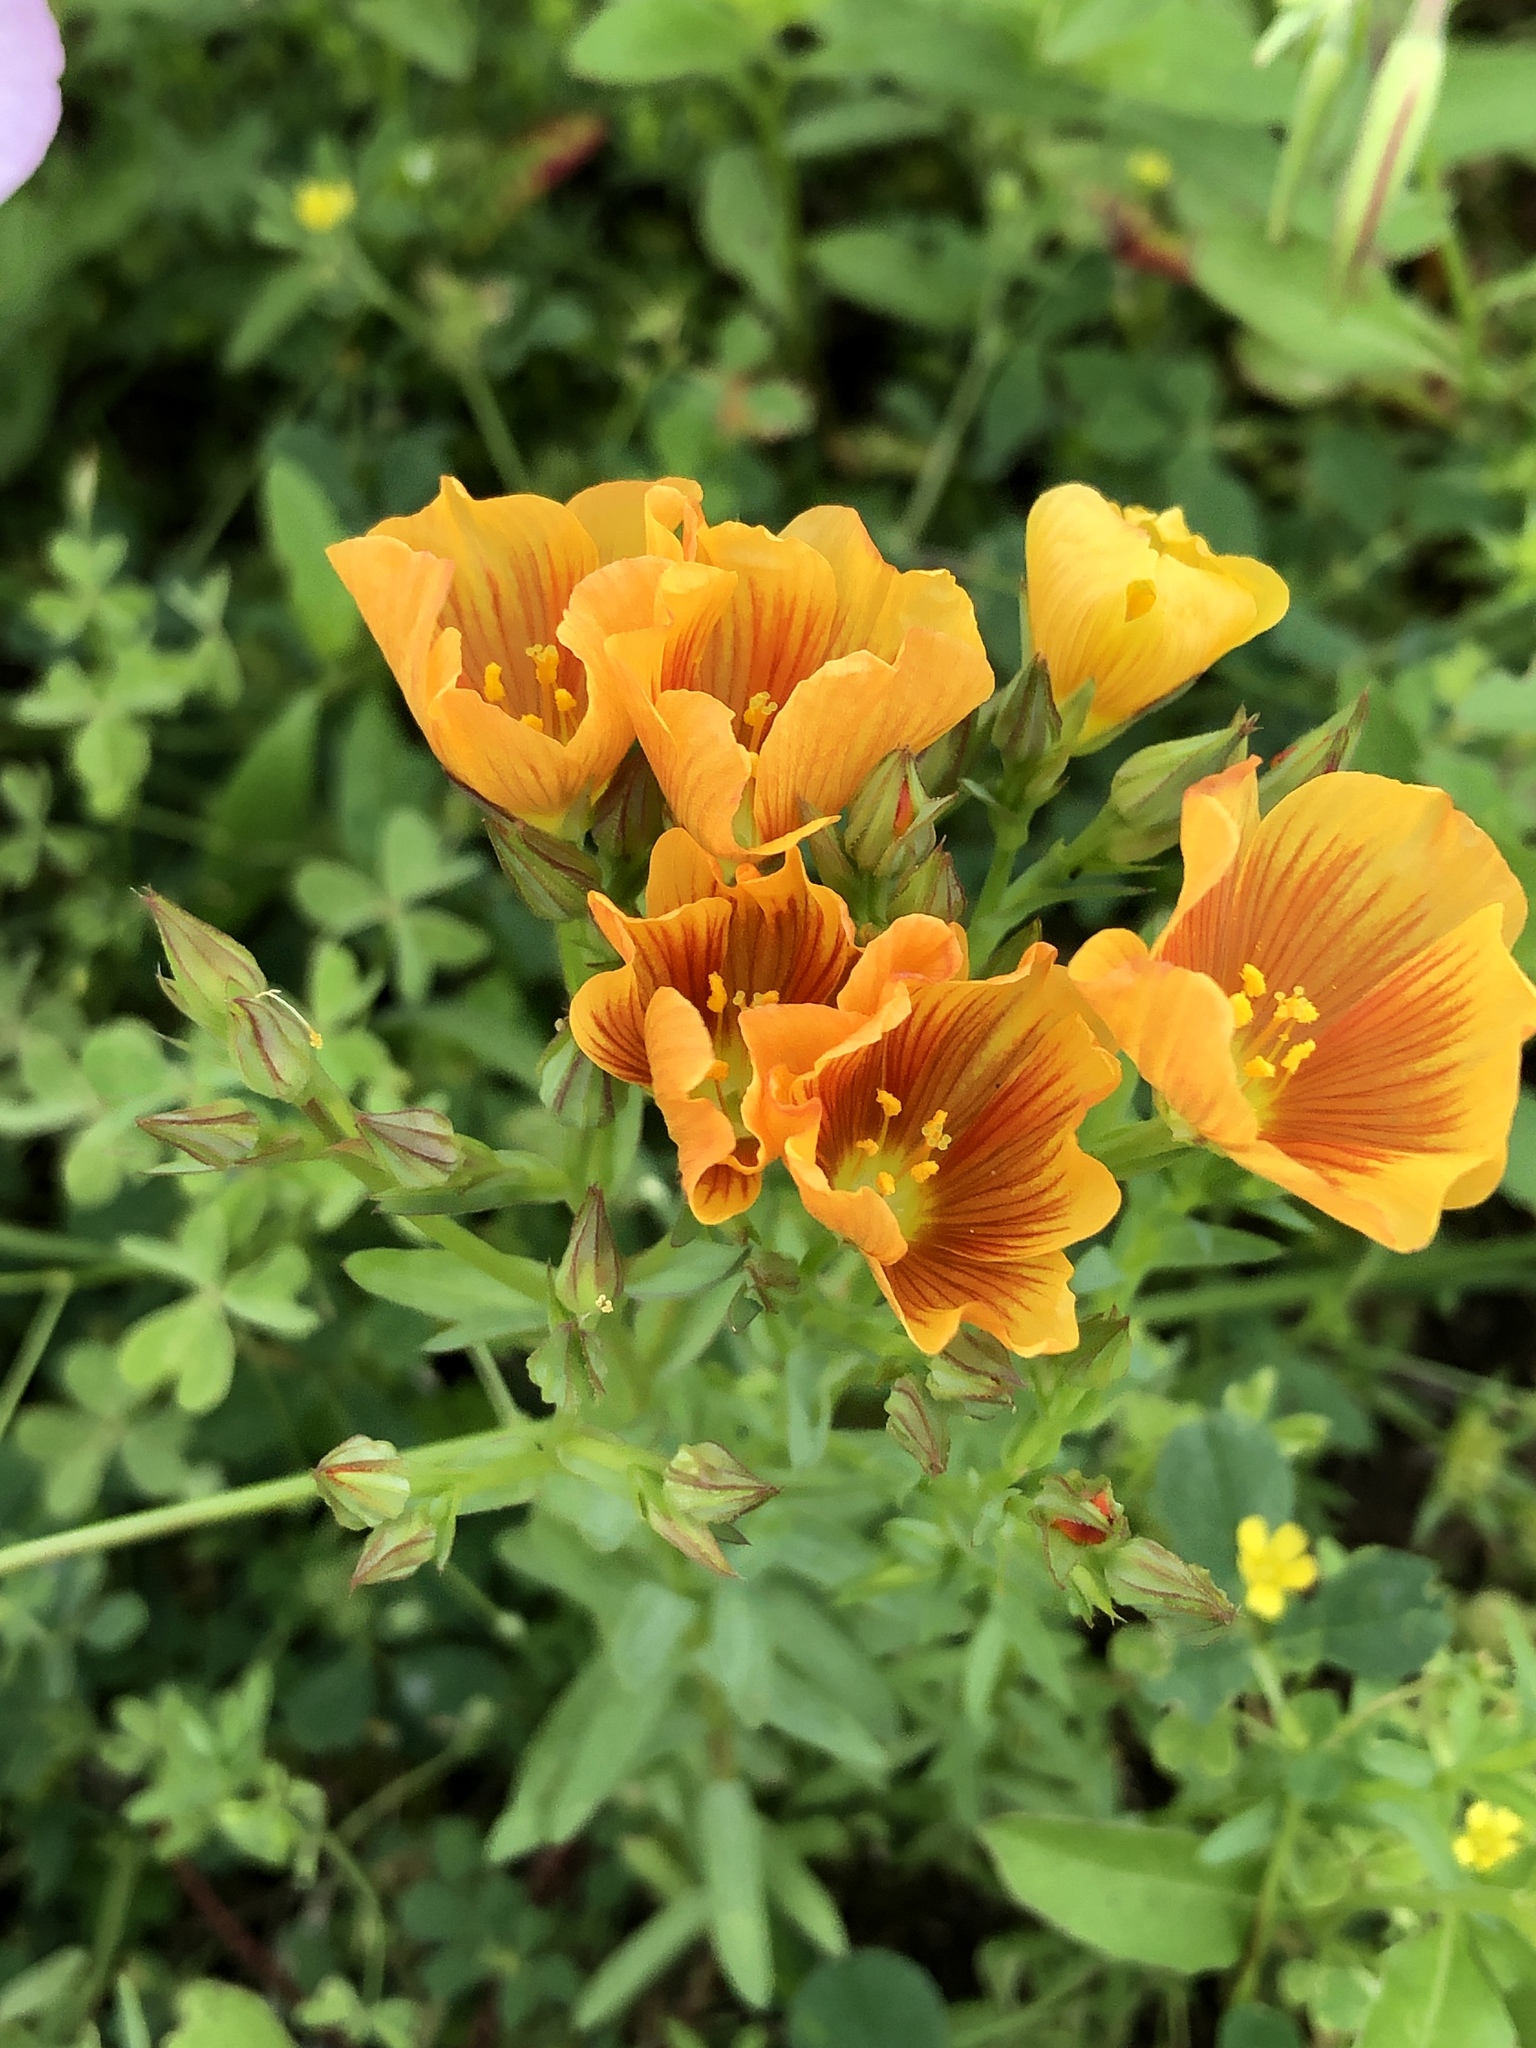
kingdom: Plantae
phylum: Tracheophyta
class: Magnoliopsida
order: Malpighiales
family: Linaceae
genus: Linum
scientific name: Linum rigidum
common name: Stiff-stem flax
